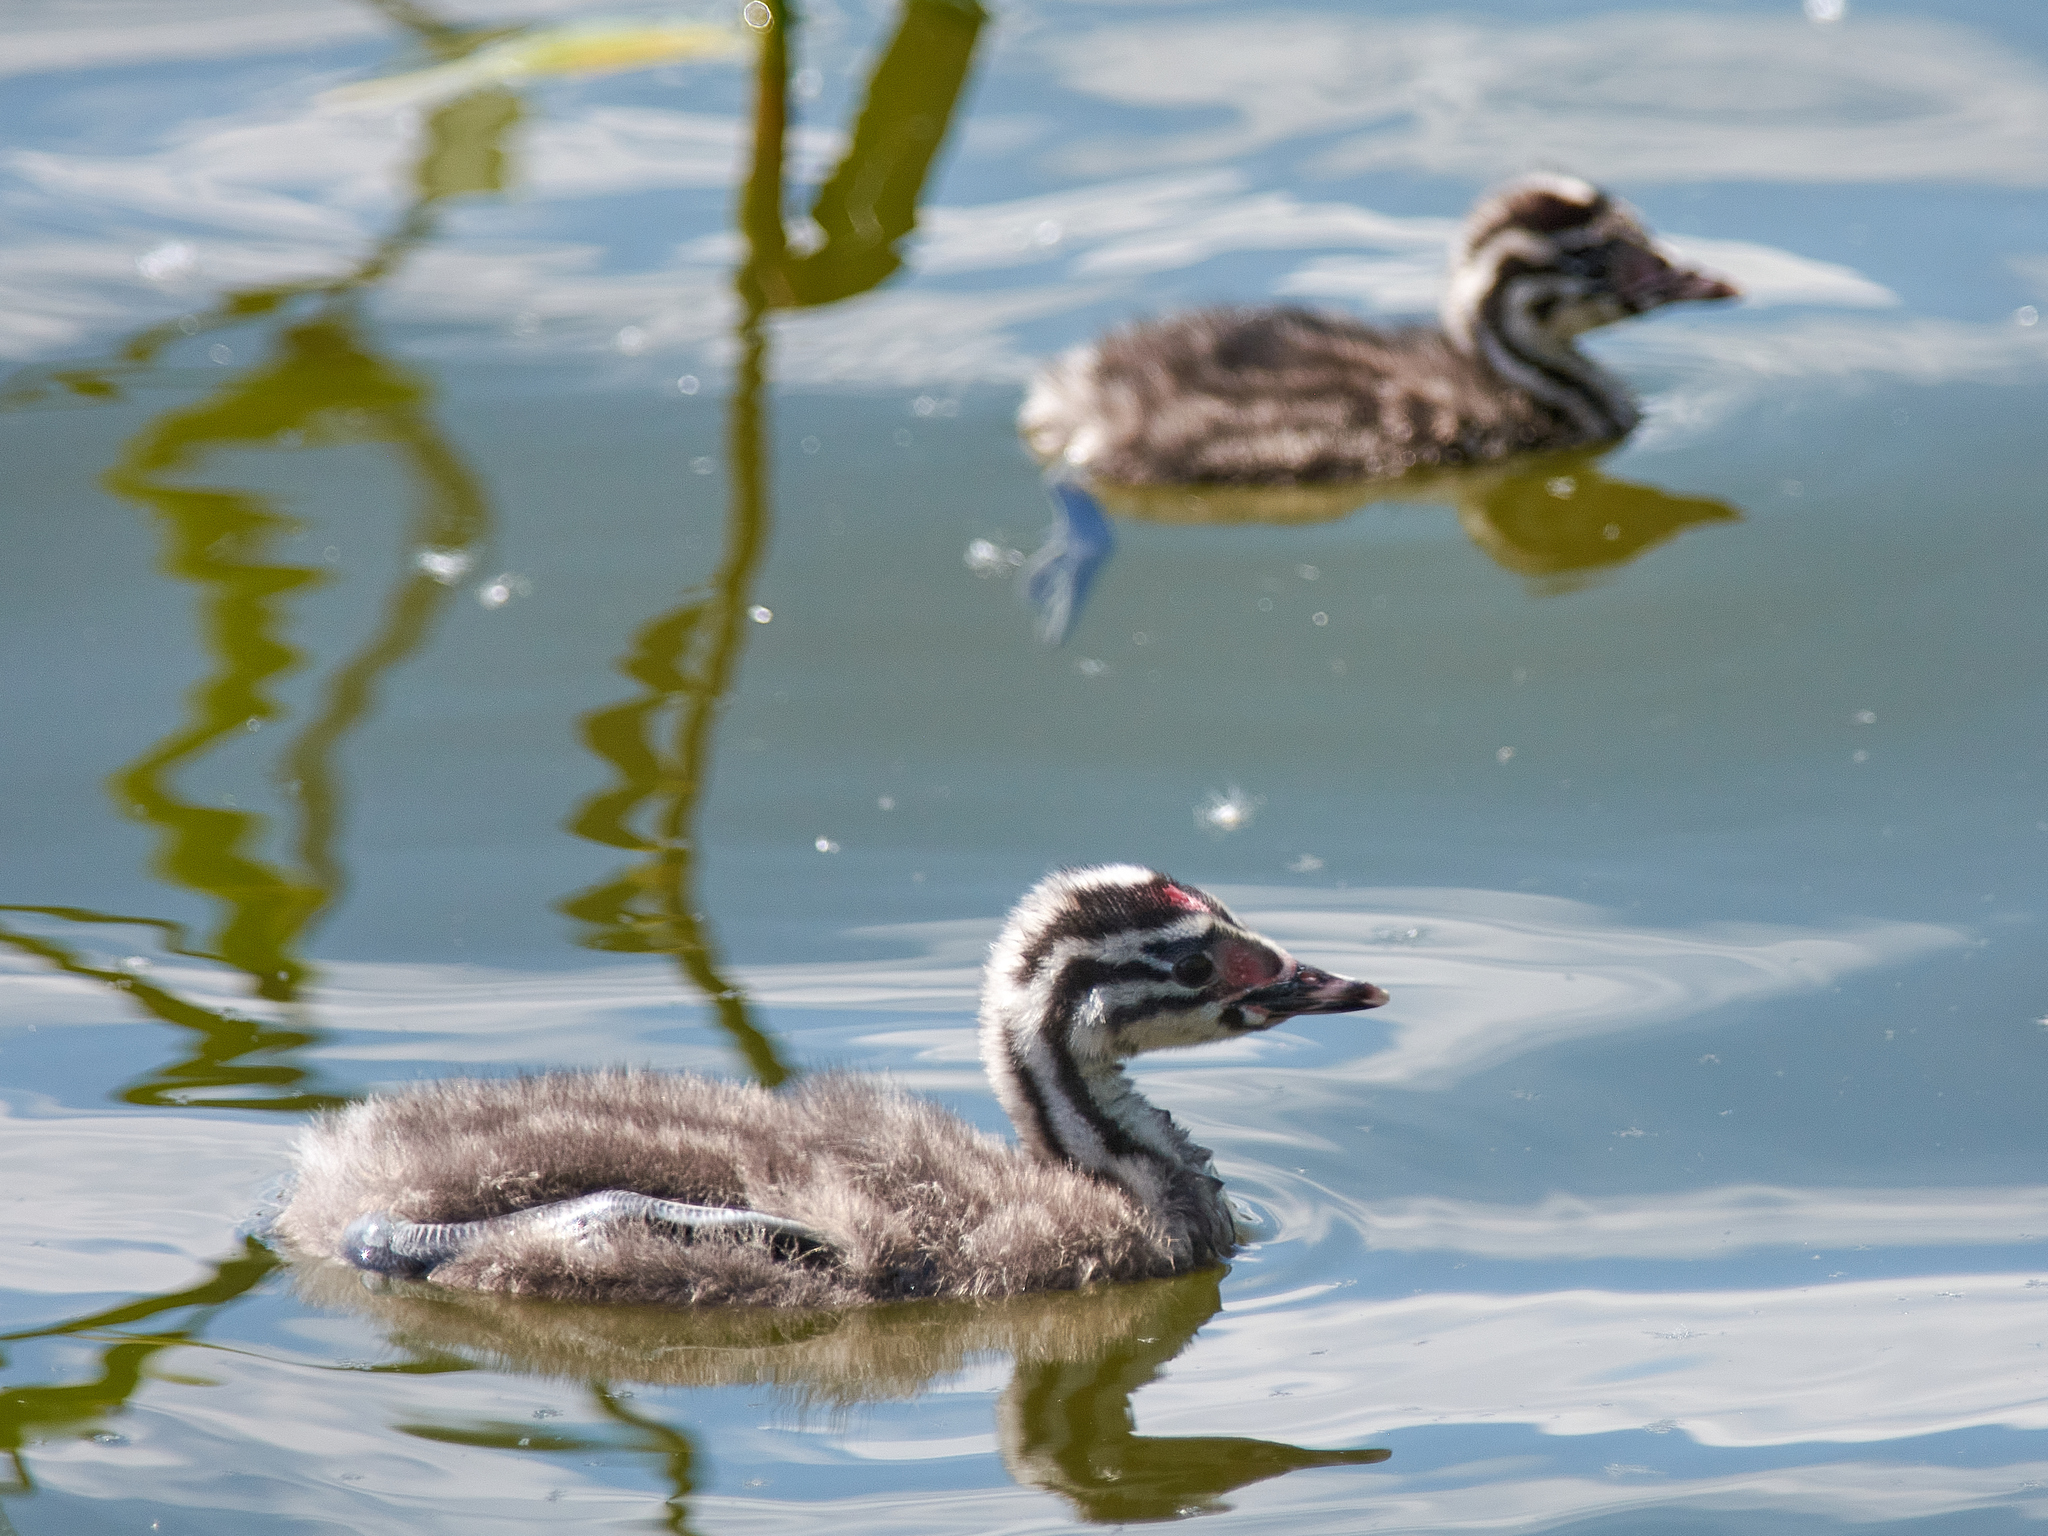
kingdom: Animalia
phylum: Chordata
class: Aves
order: Podicipediformes
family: Podicipedidae
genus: Podiceps
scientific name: Podiceps cristatus
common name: Great crested grebe
